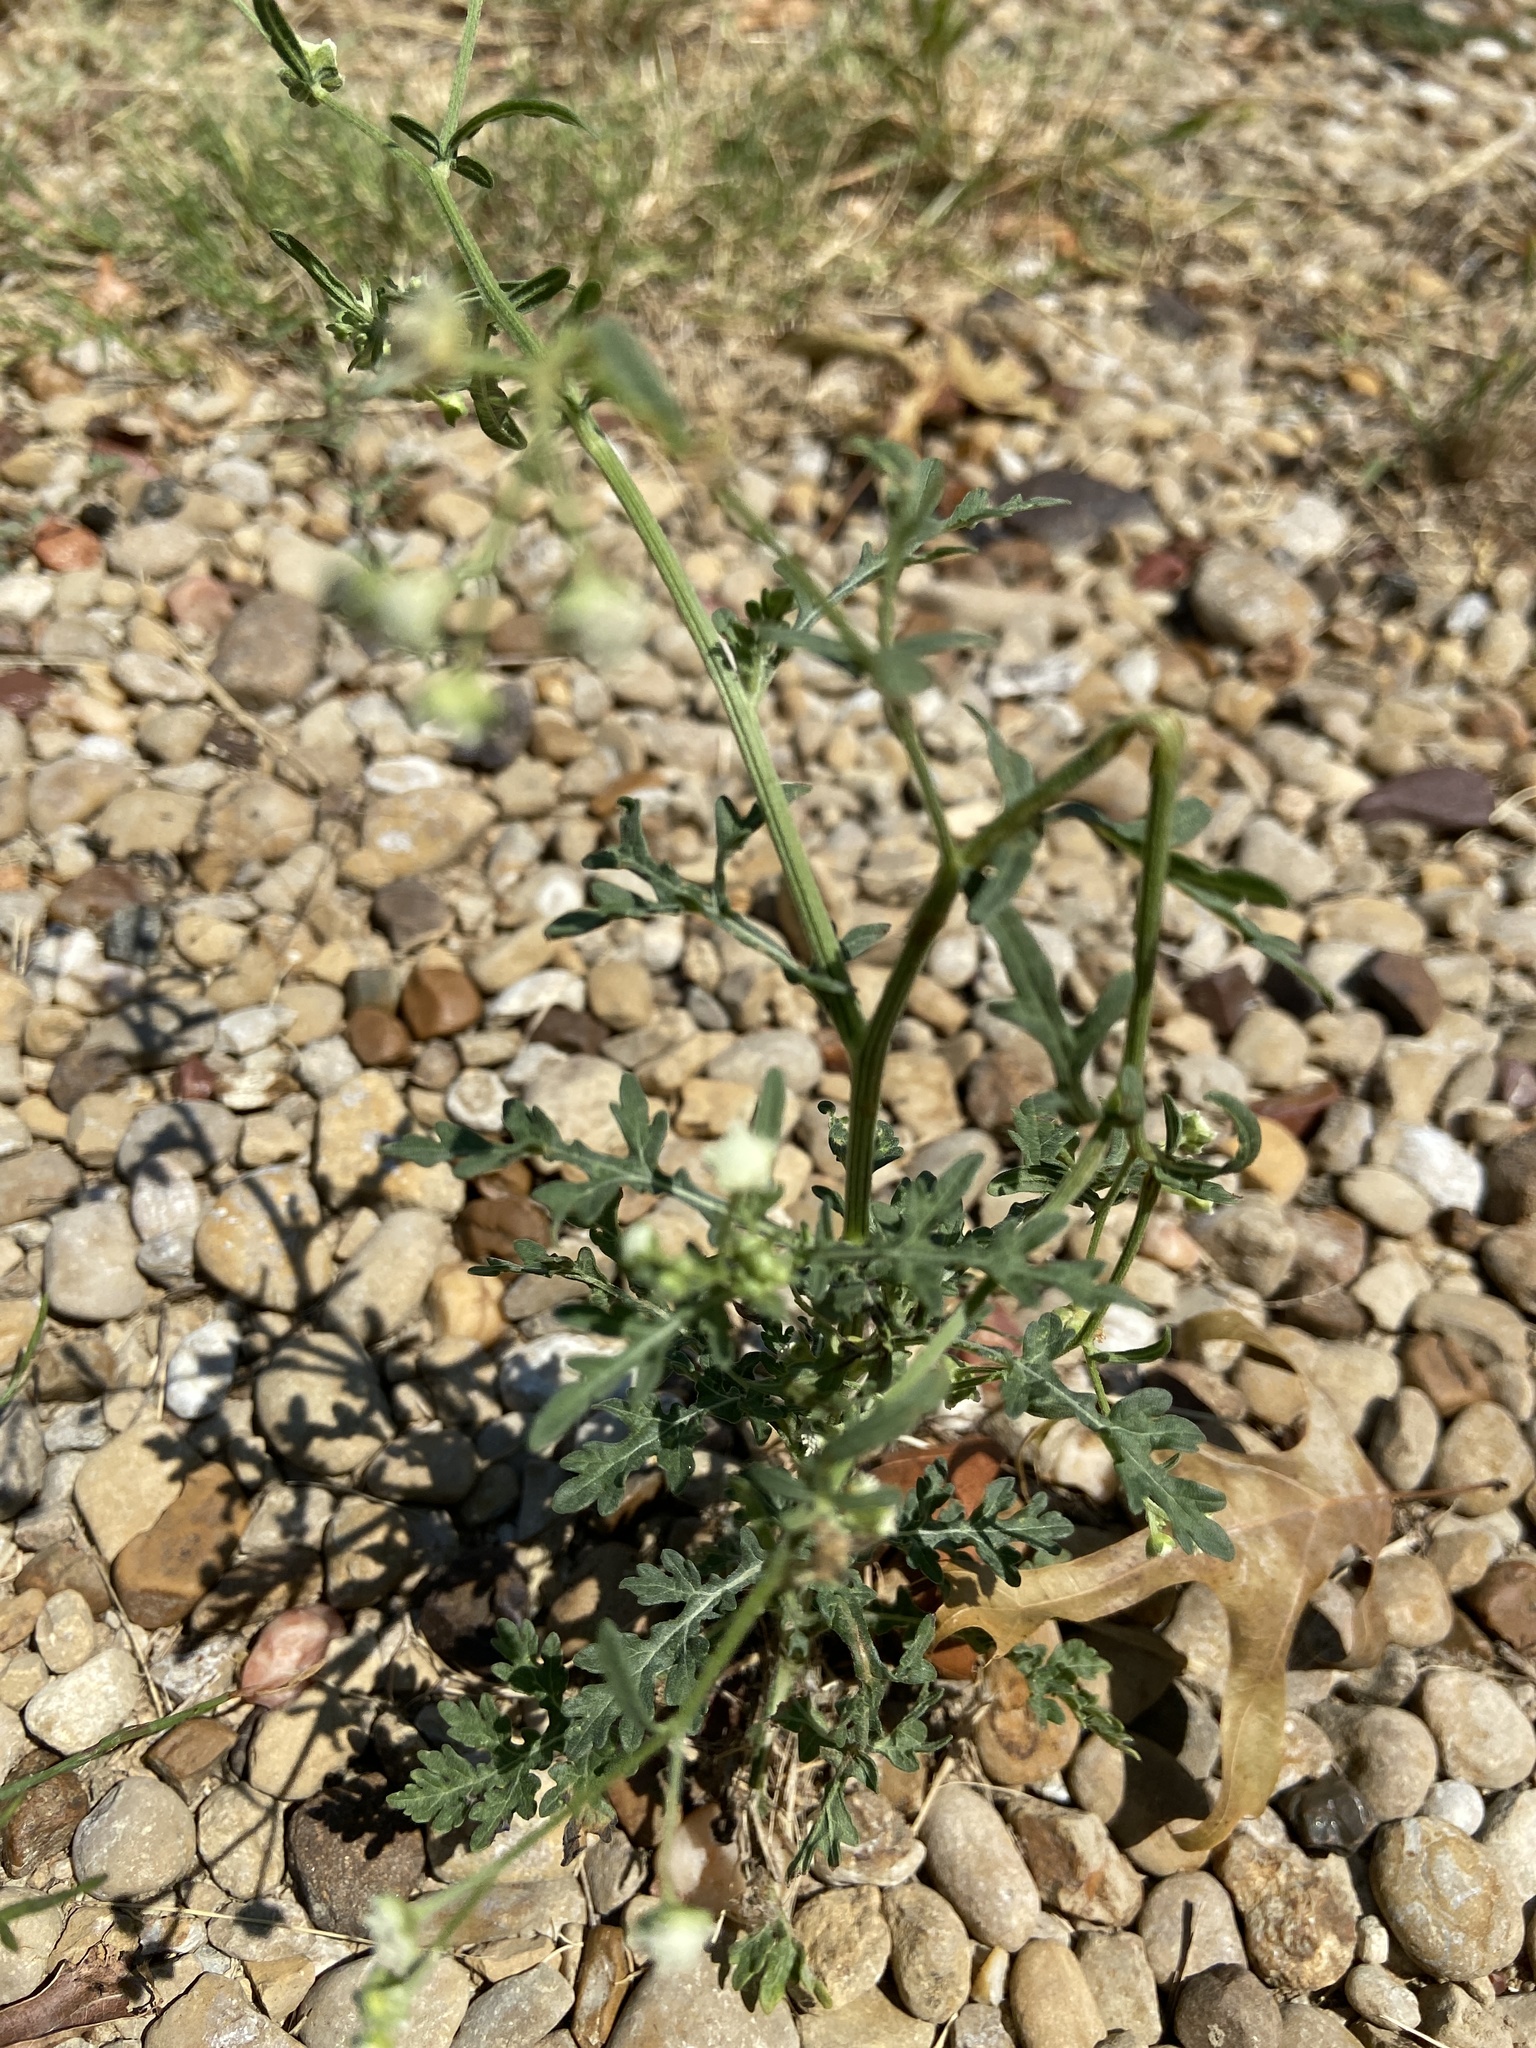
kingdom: Plantae
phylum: Tracheophyta
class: Magnoliopsida
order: Asterales
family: Asteraceae
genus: Parthenium
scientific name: Parthenium hysterophorus
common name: Santa maria feverfew
